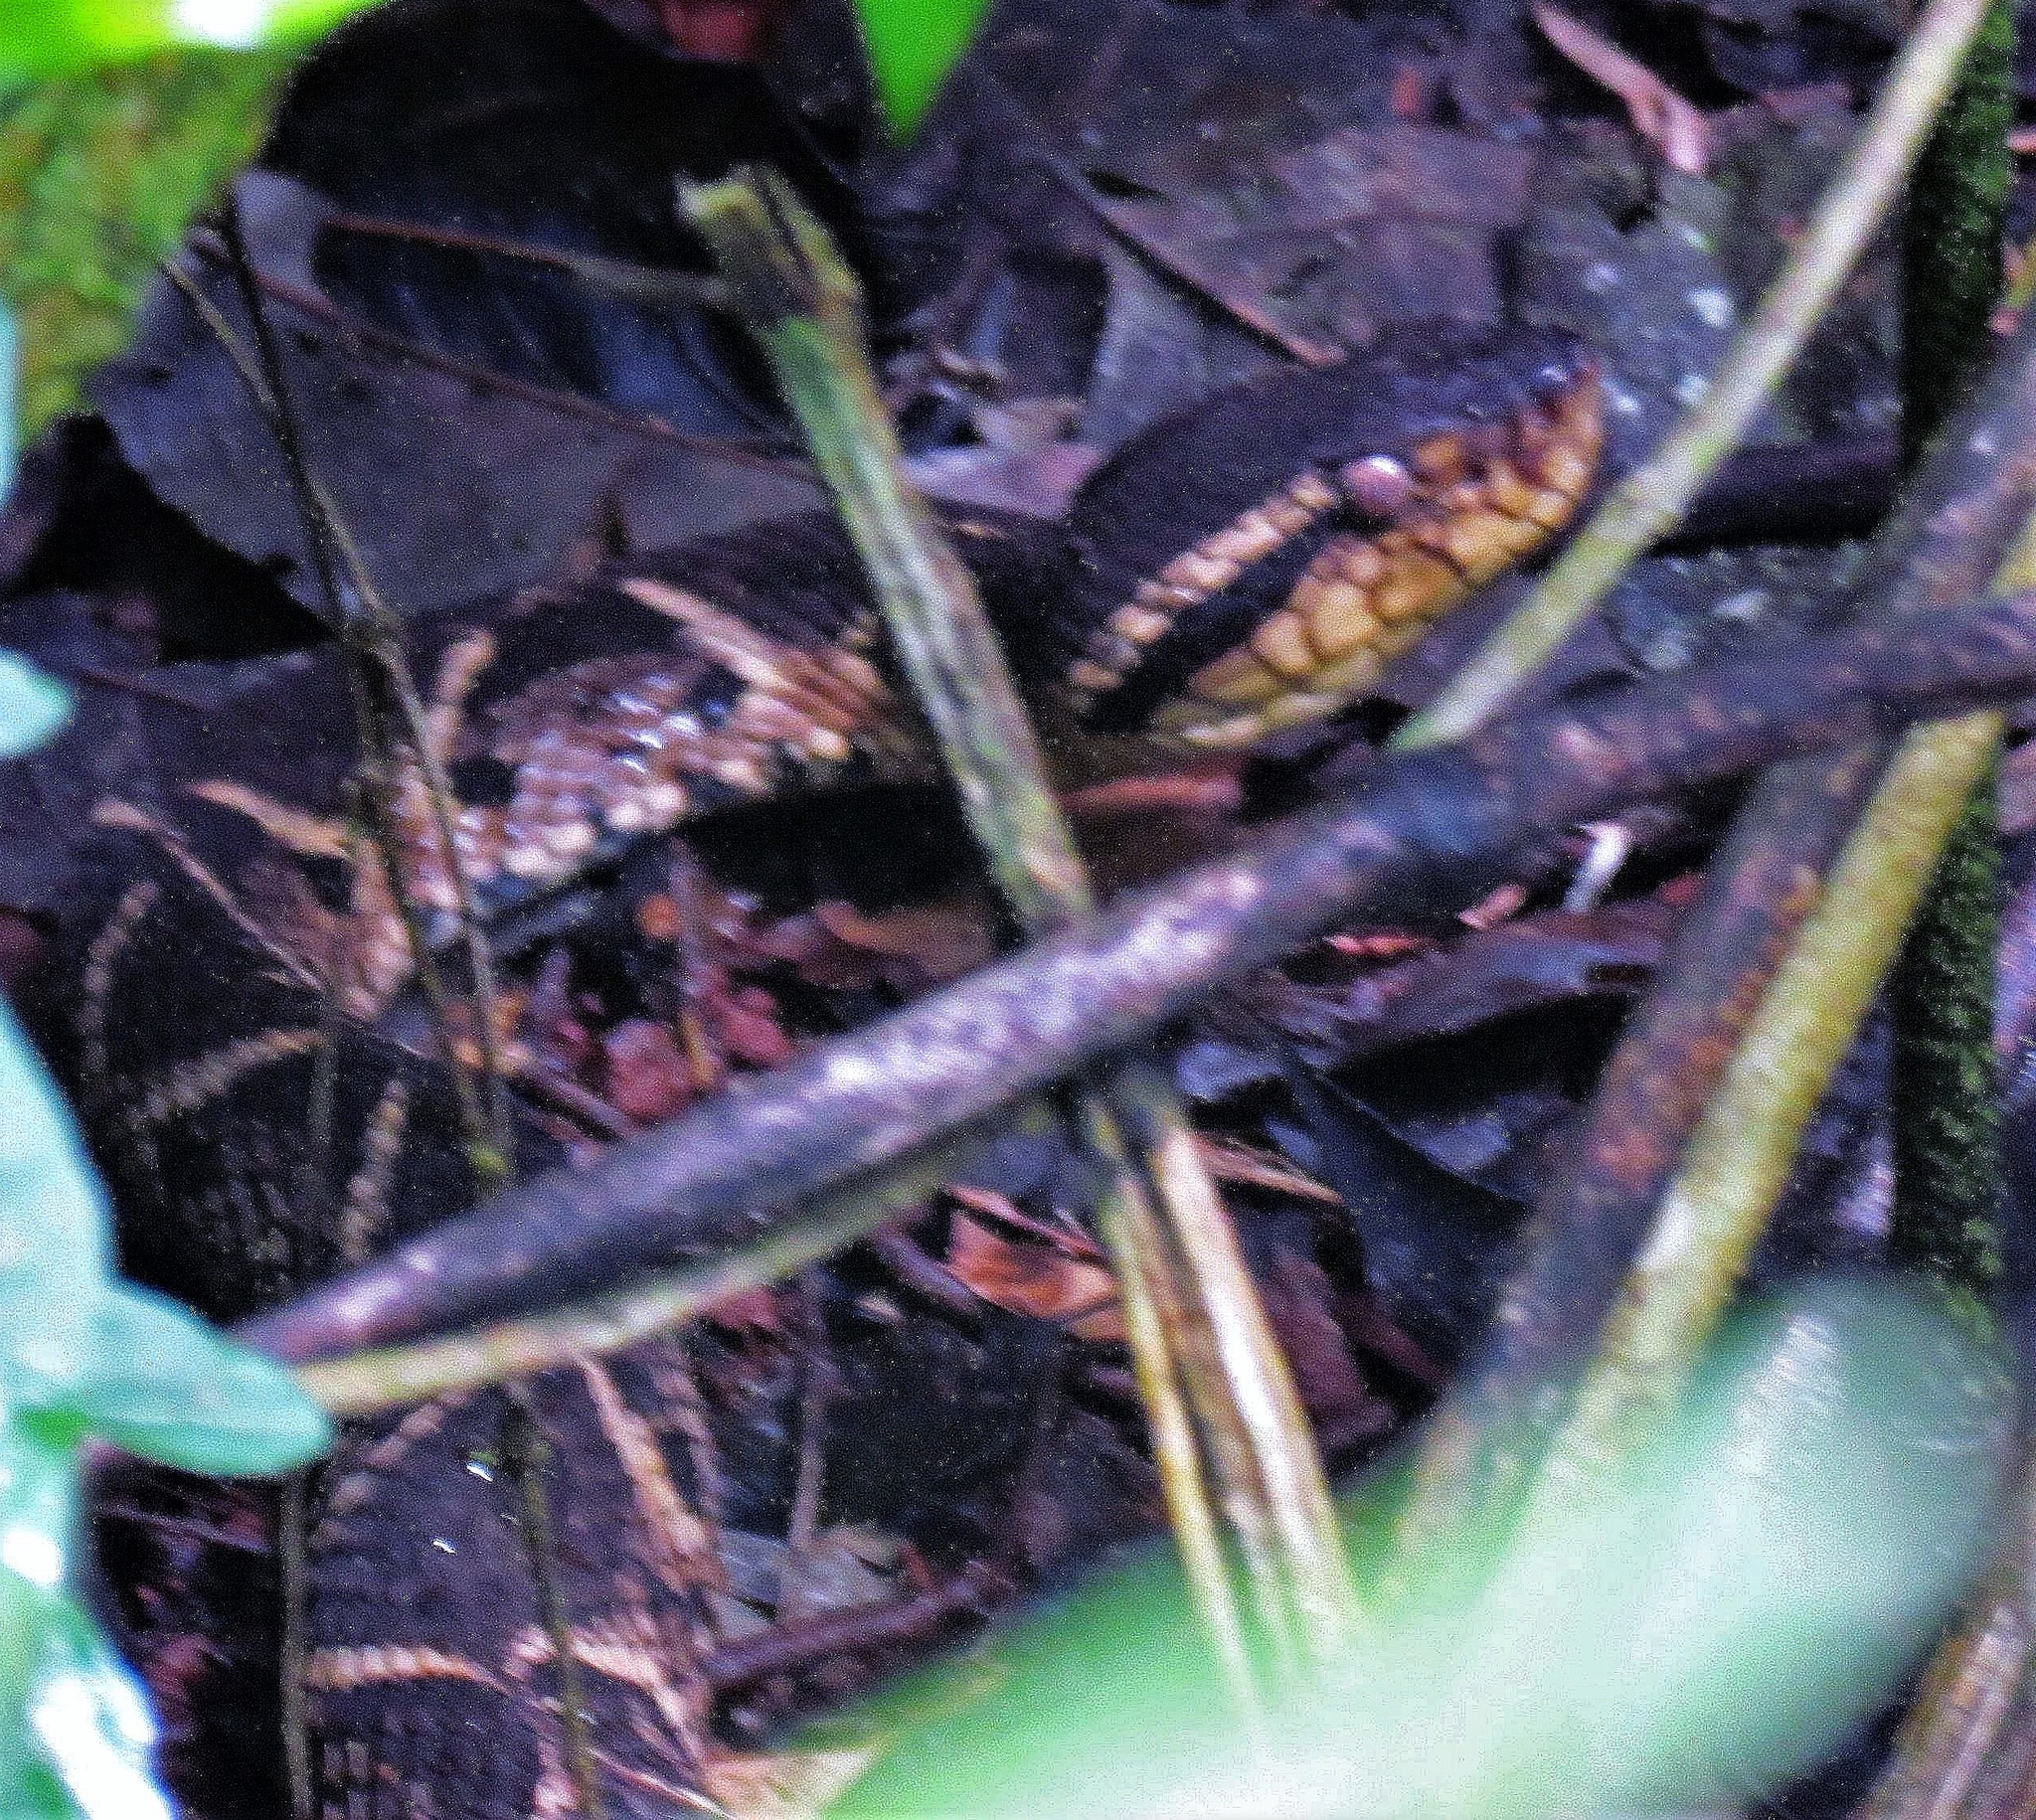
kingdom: Animalia
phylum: Chordata
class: Squamata
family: Viperidae
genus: Bothrops
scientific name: Bothrops jararacussu
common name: Jararacussu
